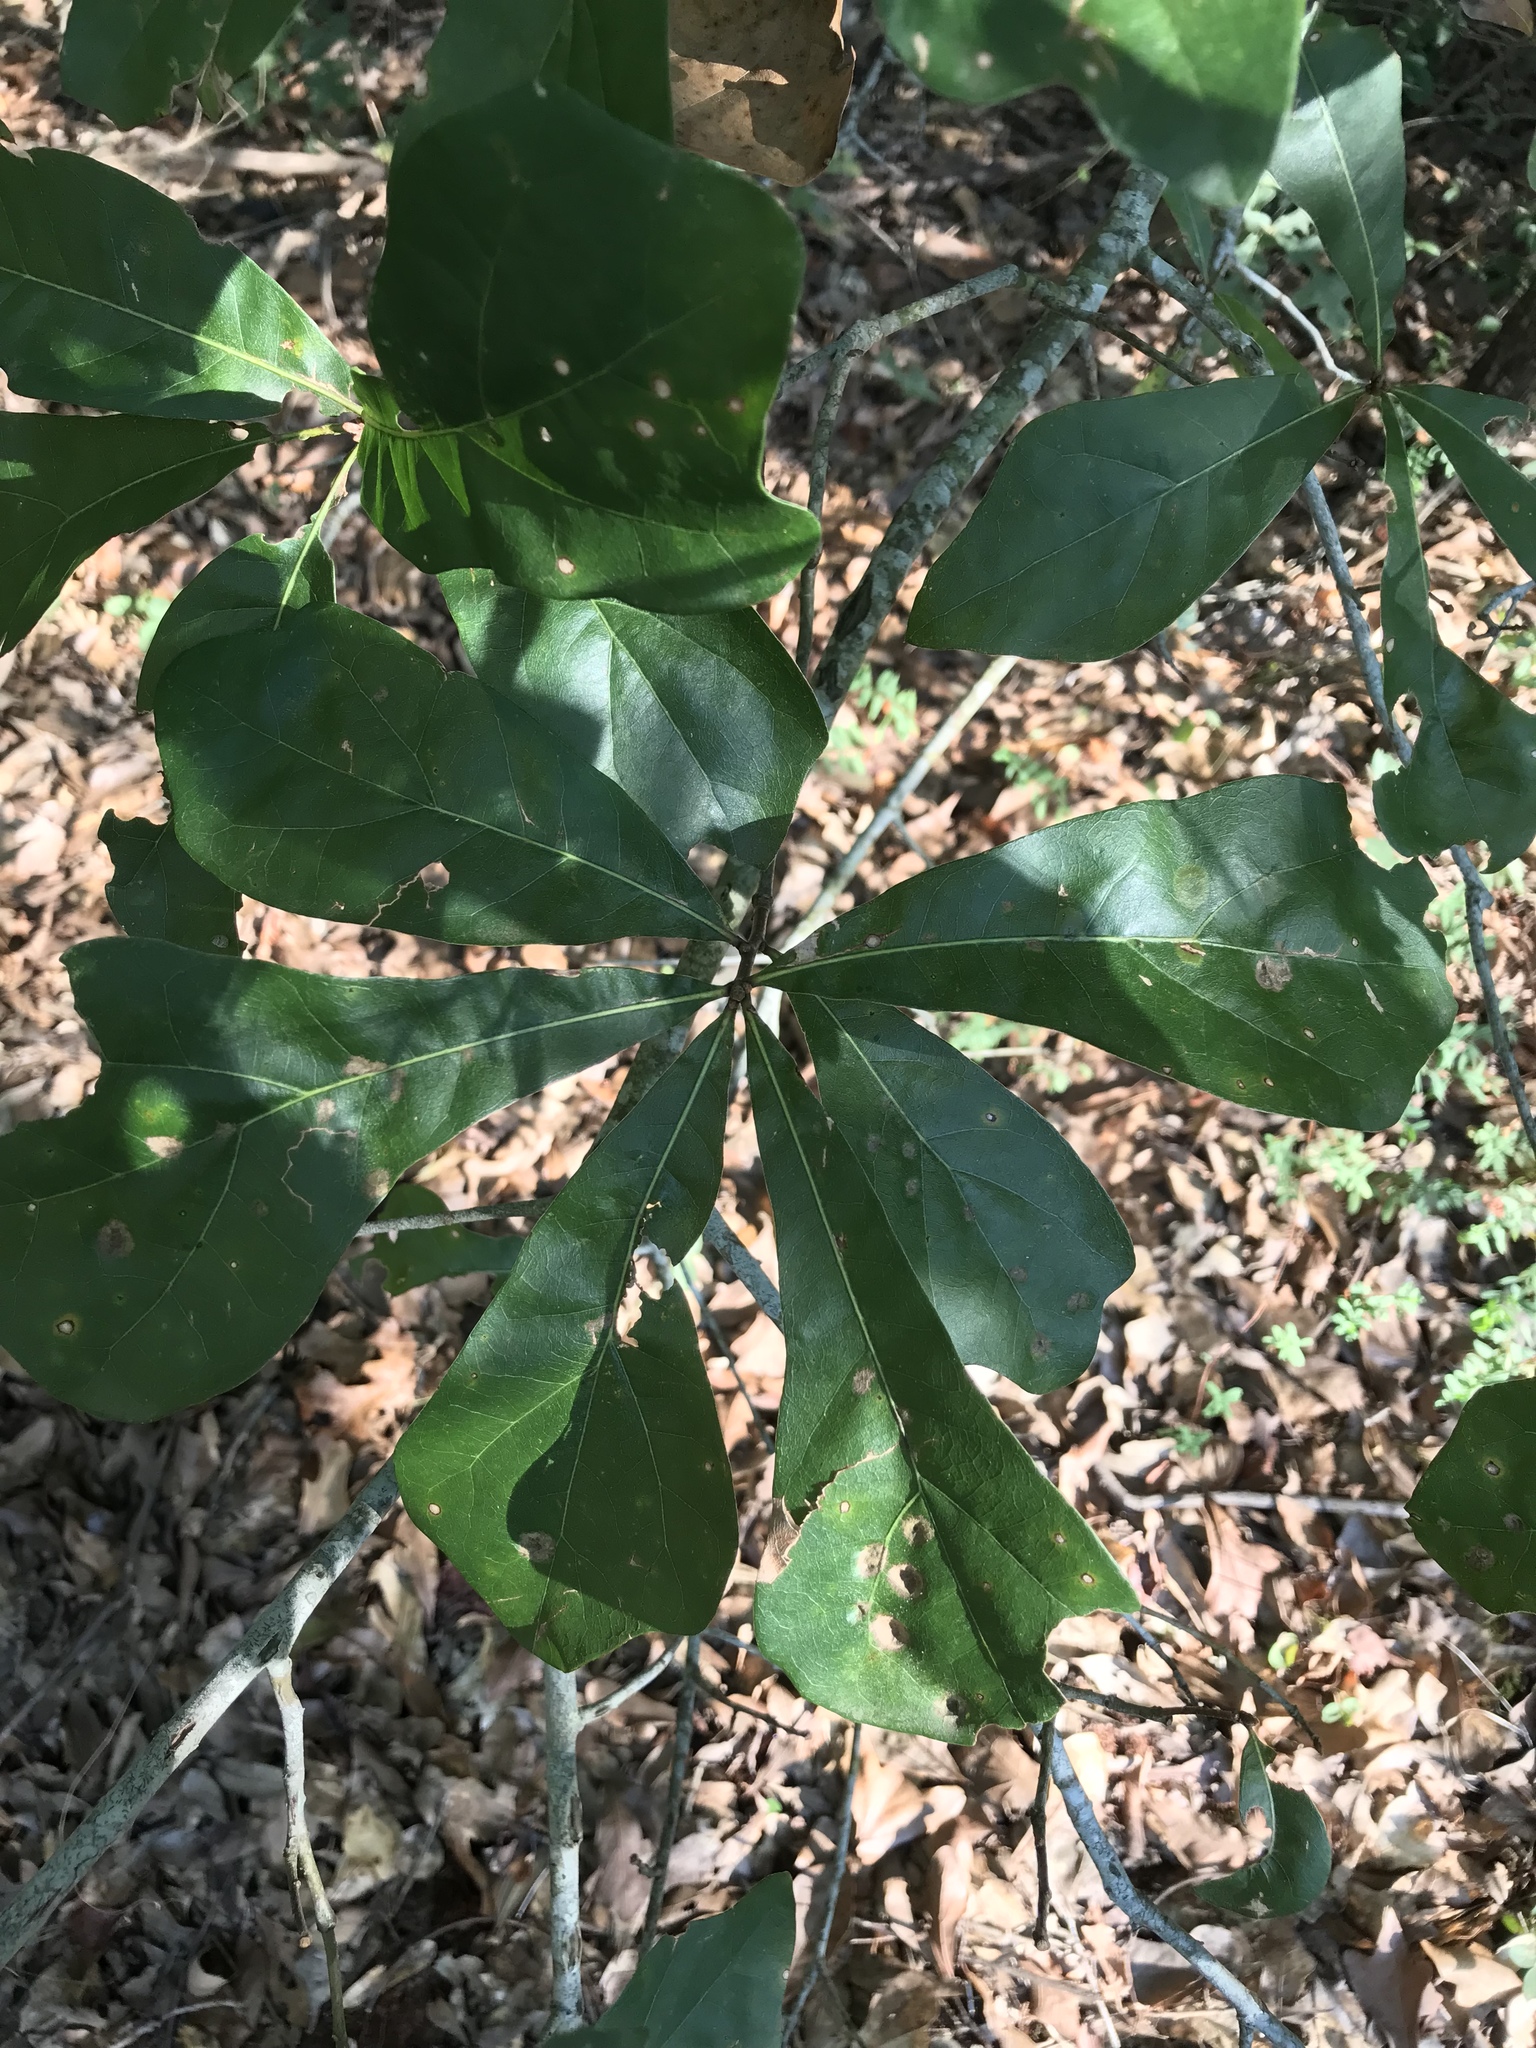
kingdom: Plantae
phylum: Tracheophyta
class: Magnoliopsida
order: Fagales
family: Fagaceae
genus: Quercus
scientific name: Quercus nigra
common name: Water oak
